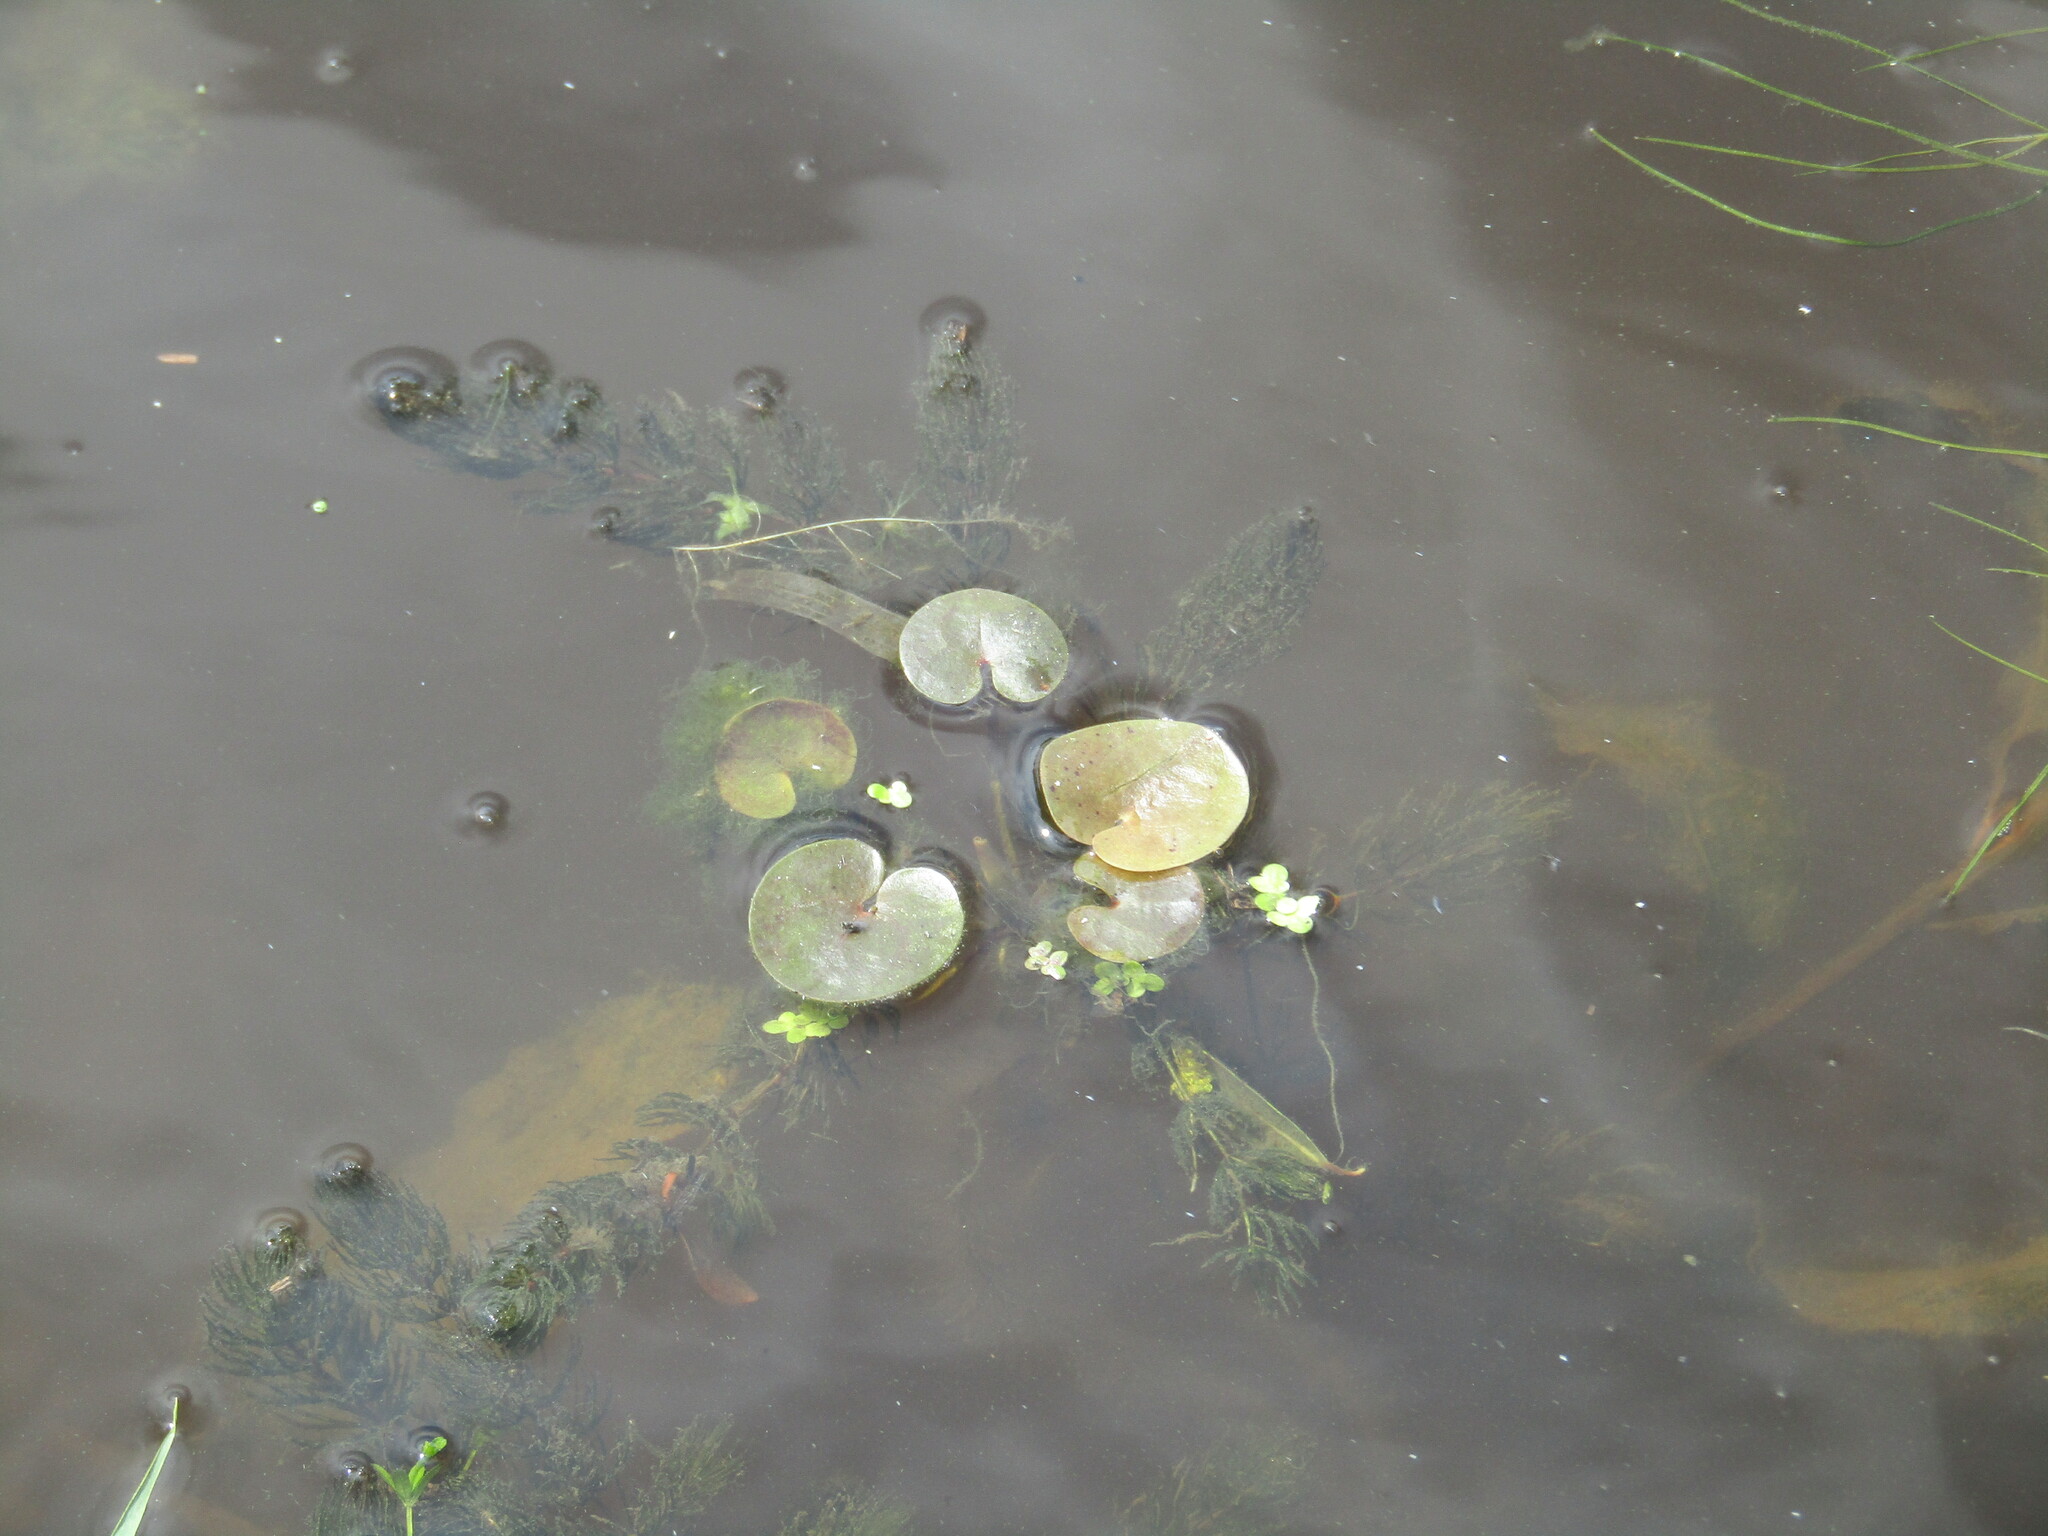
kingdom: Plantae
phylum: Tracheophyta
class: Liliopsida
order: Alismatales
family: Hydrocharitaceae
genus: Hydrocharis
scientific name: Hydrocharis morsus-ranae
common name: Frogbit
